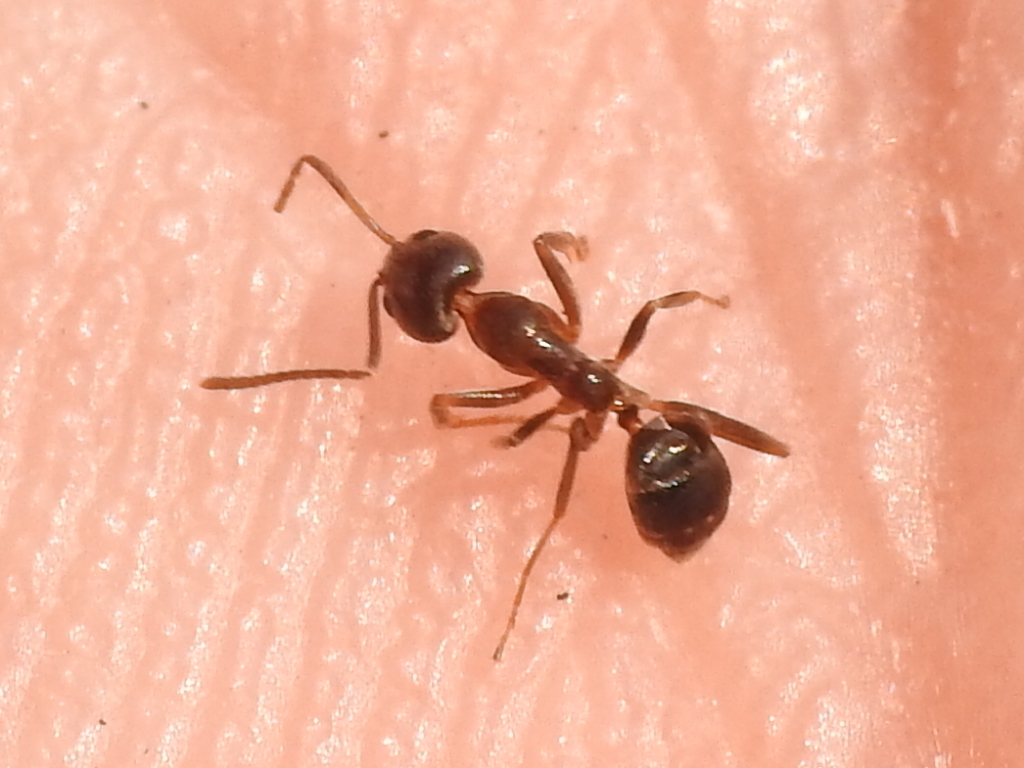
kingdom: Animalia
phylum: Arthropoda
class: Insecta
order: Hymenoptera
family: Formicidae
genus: Linepithema
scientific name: Linepithema humile
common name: Argentine ant
